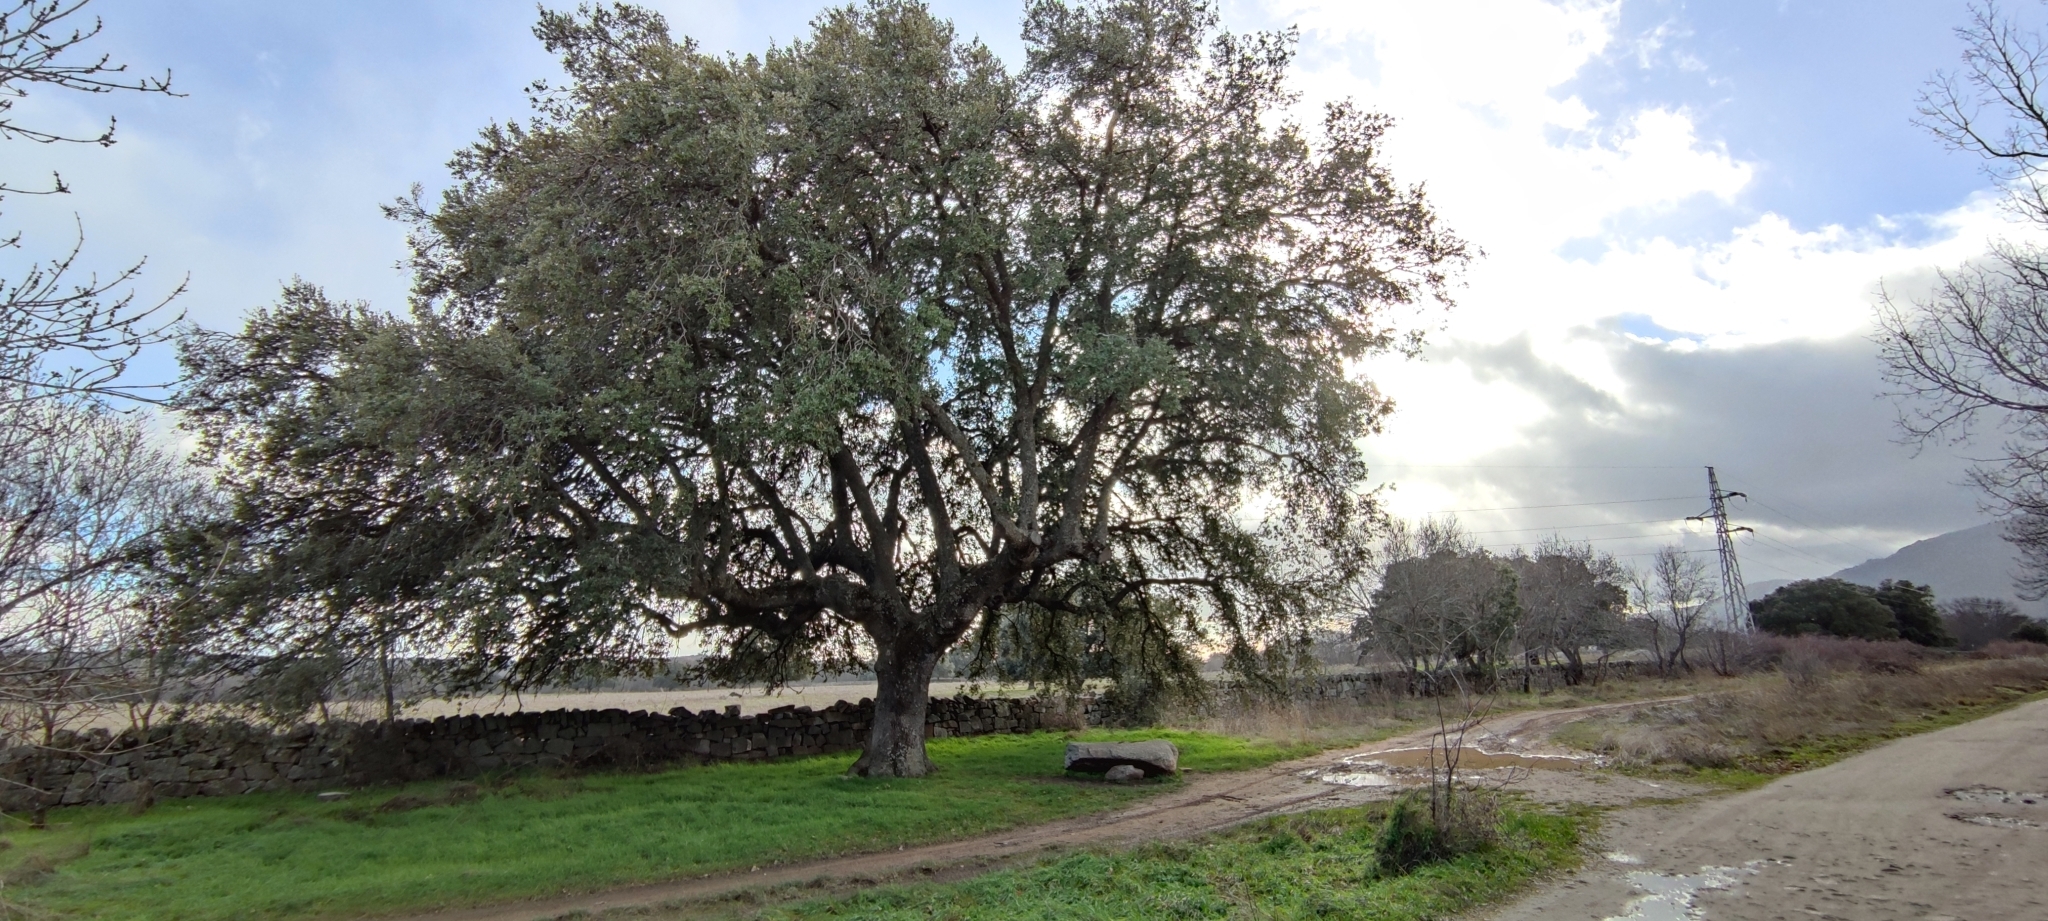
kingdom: Plantae
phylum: Tracheophyta
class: Magnoliopsida
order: Fagales
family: Fagaceae
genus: Quercus
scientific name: Quercus rotundifolia
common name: Holm oak
